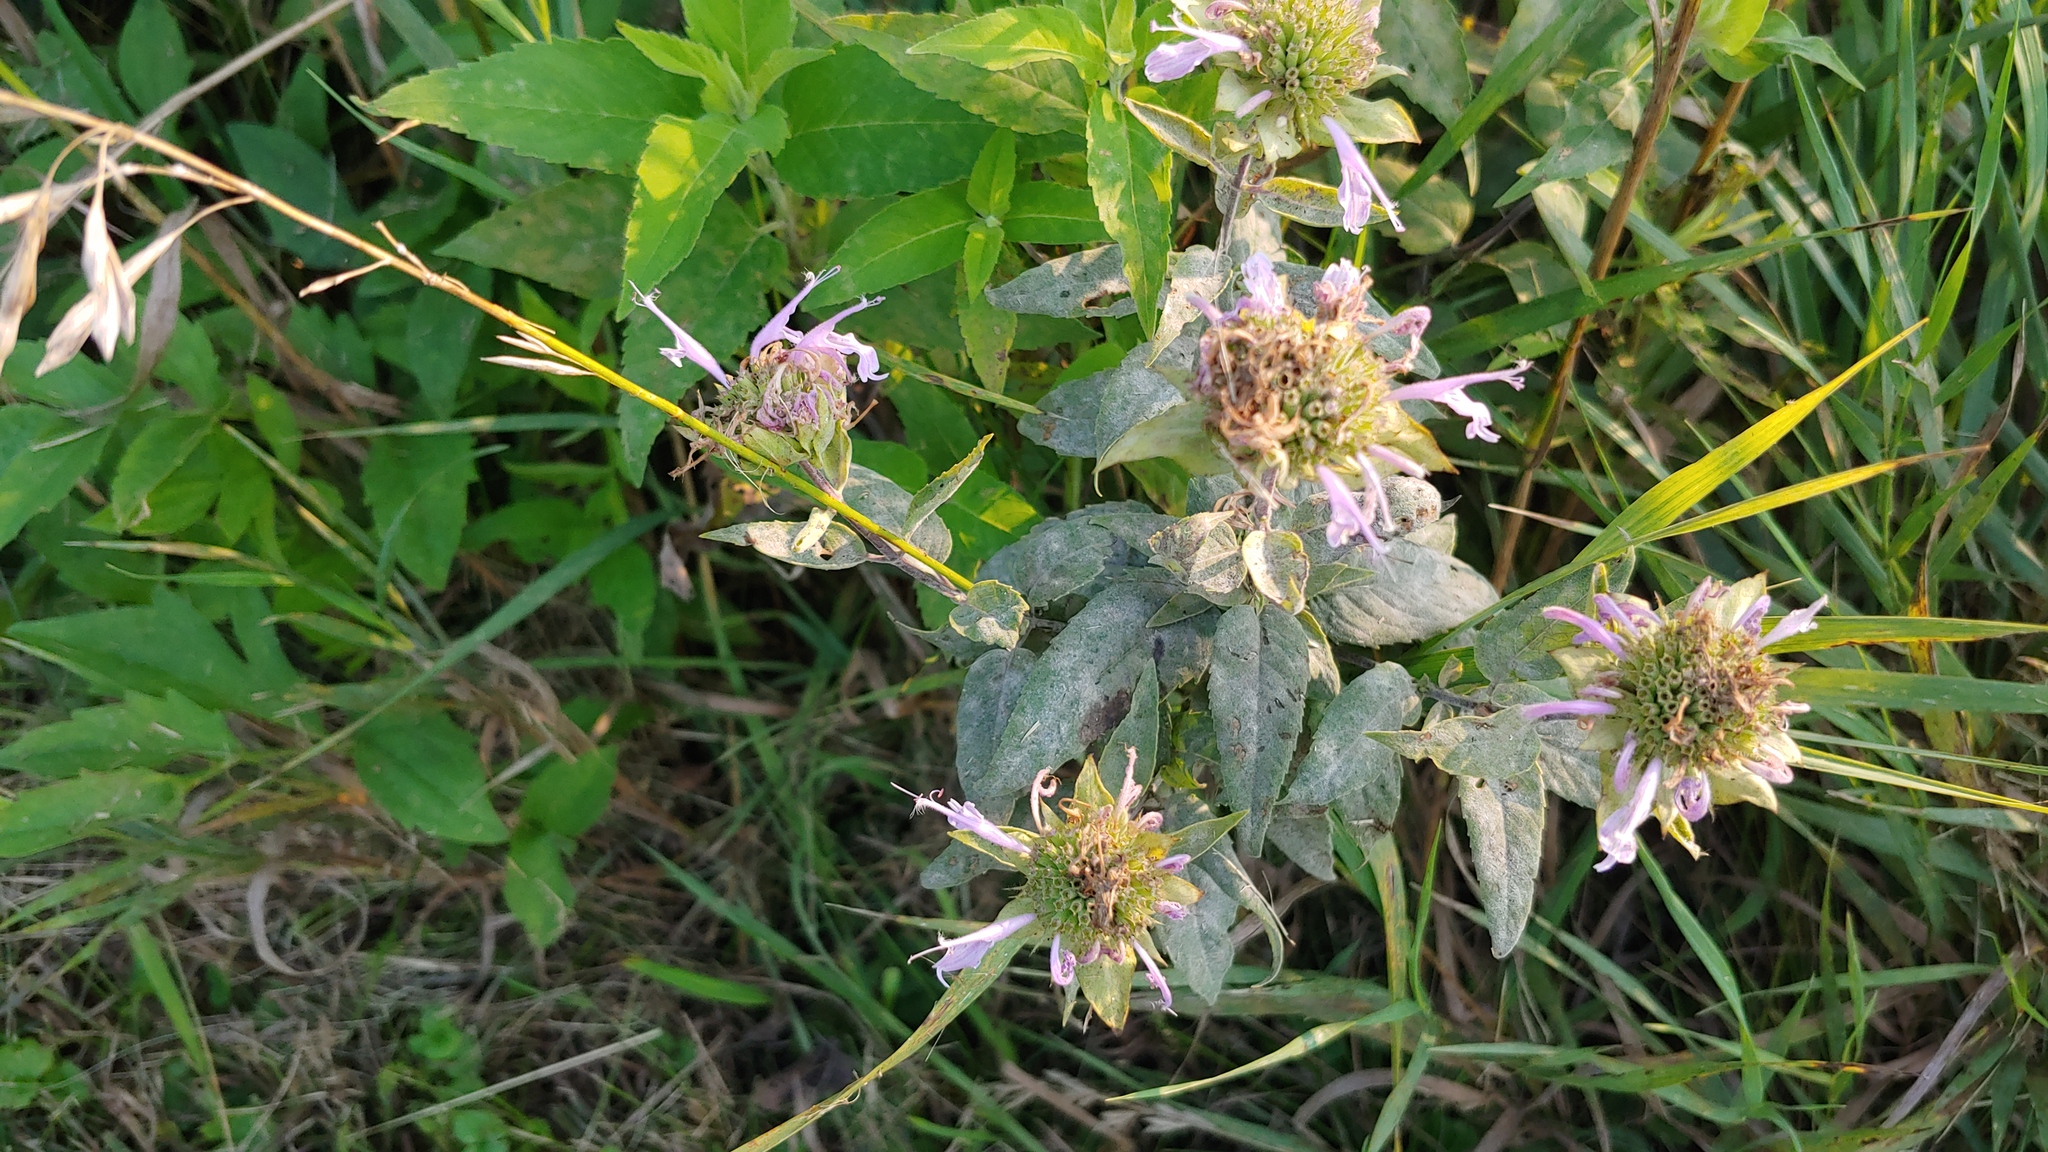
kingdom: Fungi
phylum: Ascomycota
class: Leotiomycetes
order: Helotiales
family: Erysiphaceae
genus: Golovinomyces
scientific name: Golovinomyces monardae
